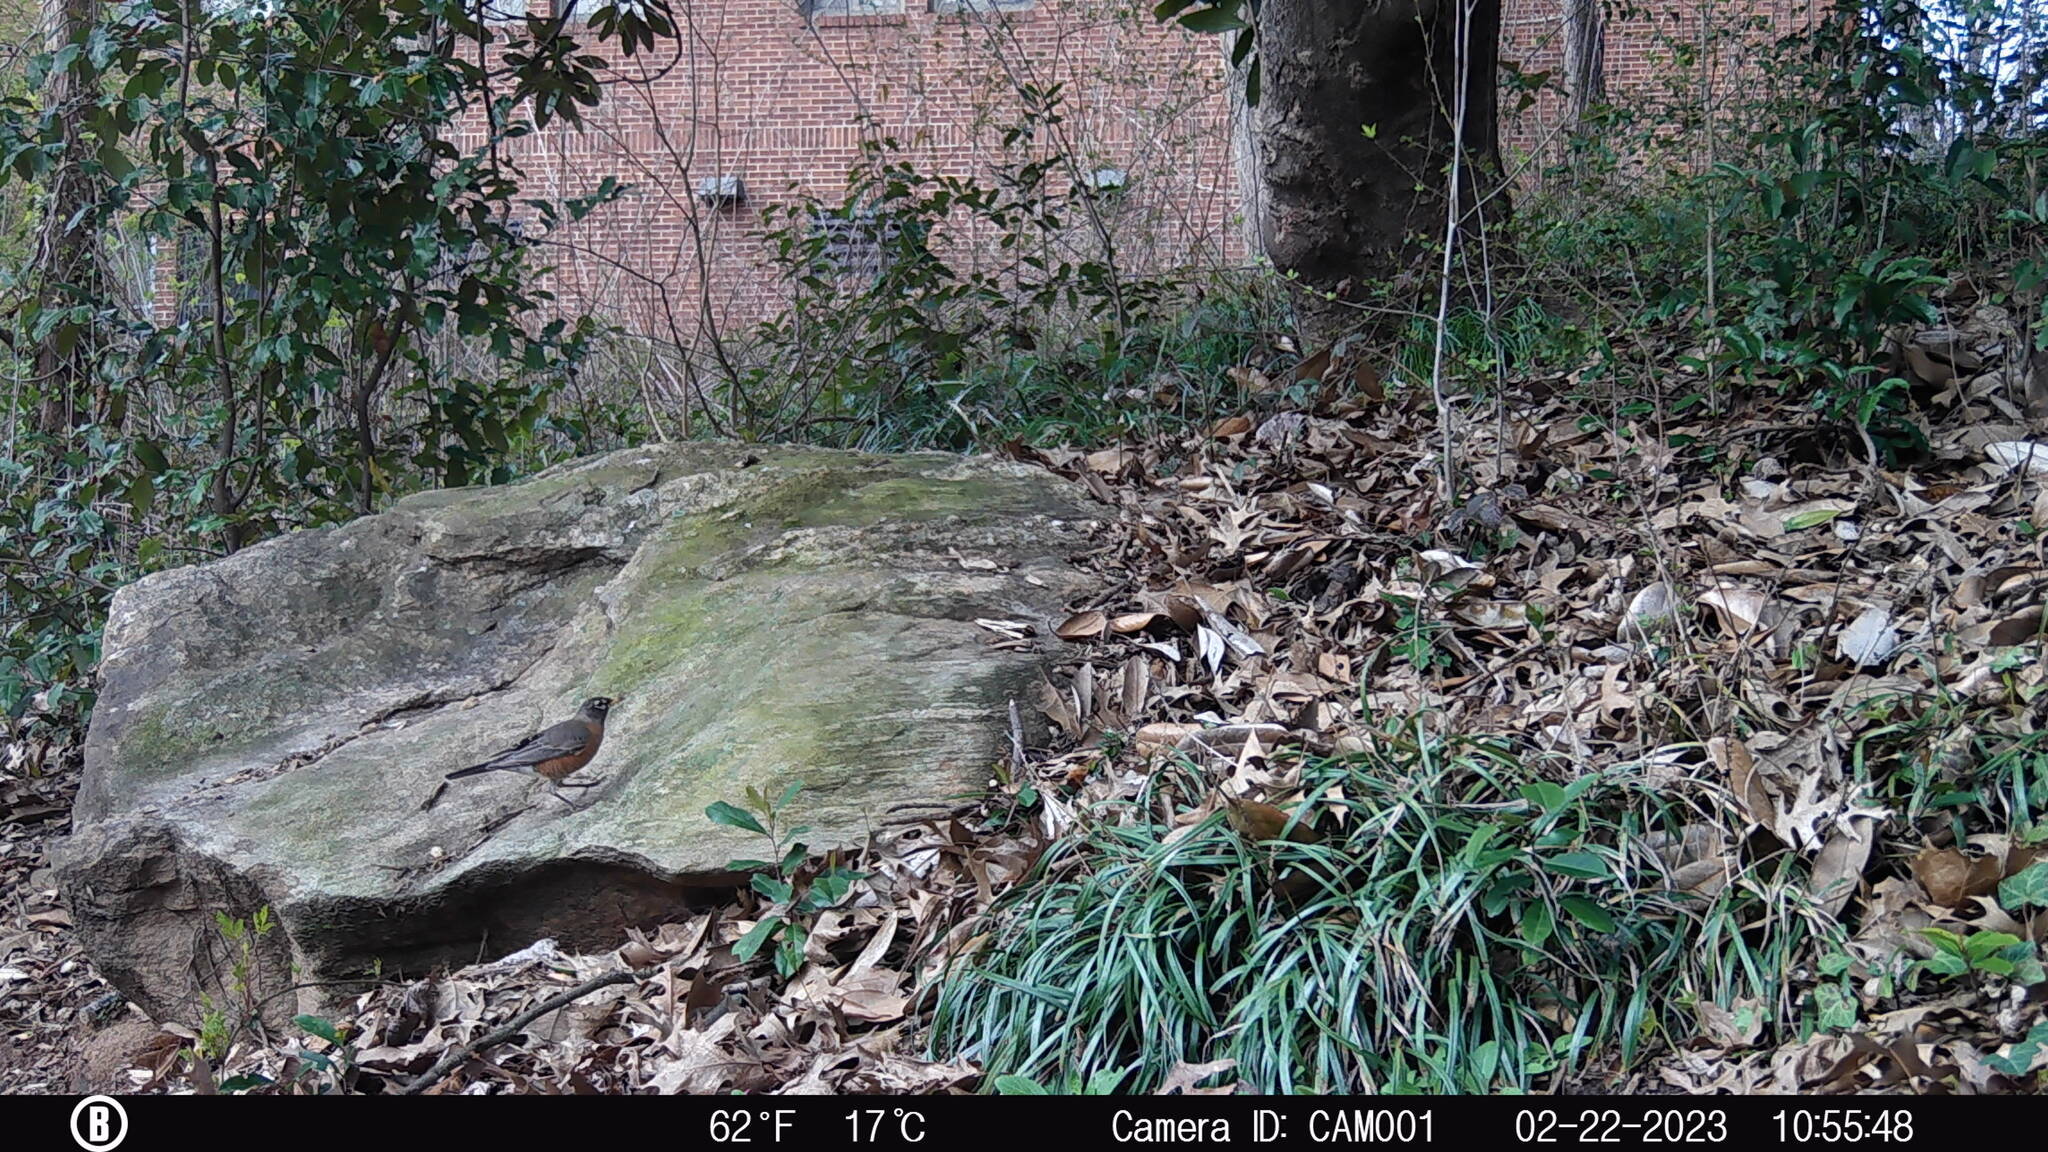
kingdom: Animalia
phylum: Chordata
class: Aves
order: Passeriformes
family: Turdidae
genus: Turdus
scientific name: Turdus migratorius
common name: American robin
